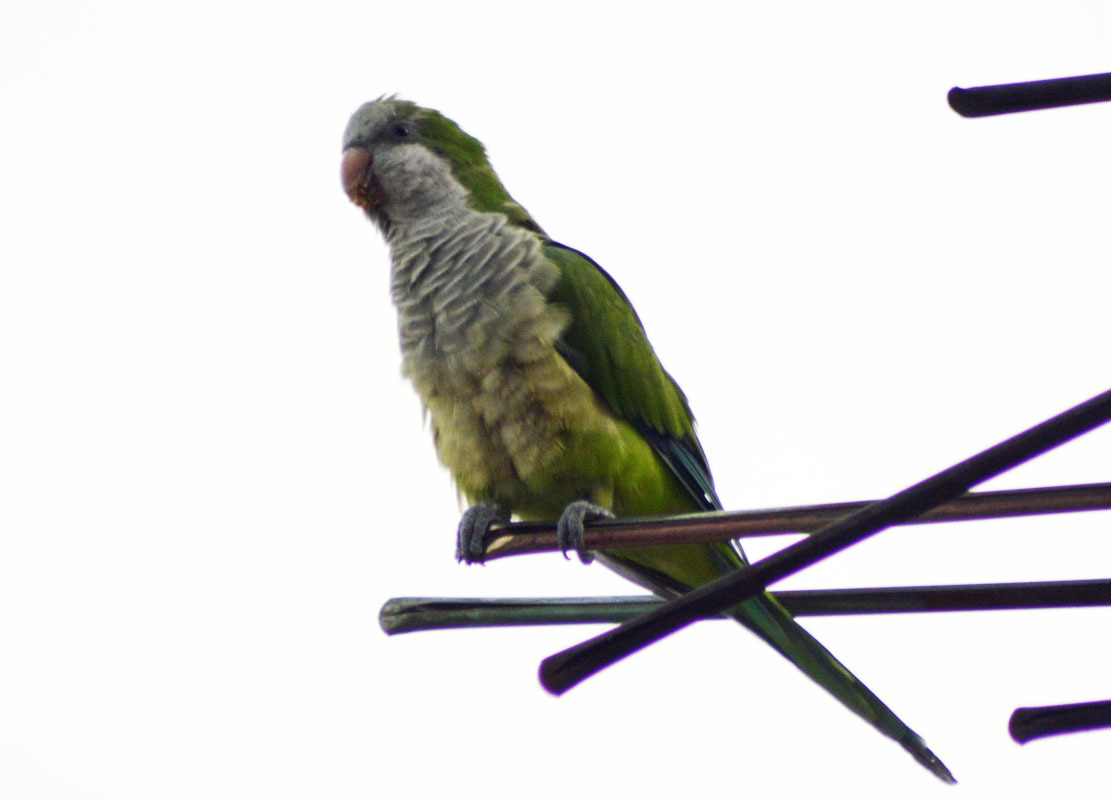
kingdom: Animalia
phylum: Chordata
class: Aves
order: Psittaciformes
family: Psittacidae
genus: Myiopsitta
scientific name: Myiopsitta monachus
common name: Monk parakeet
